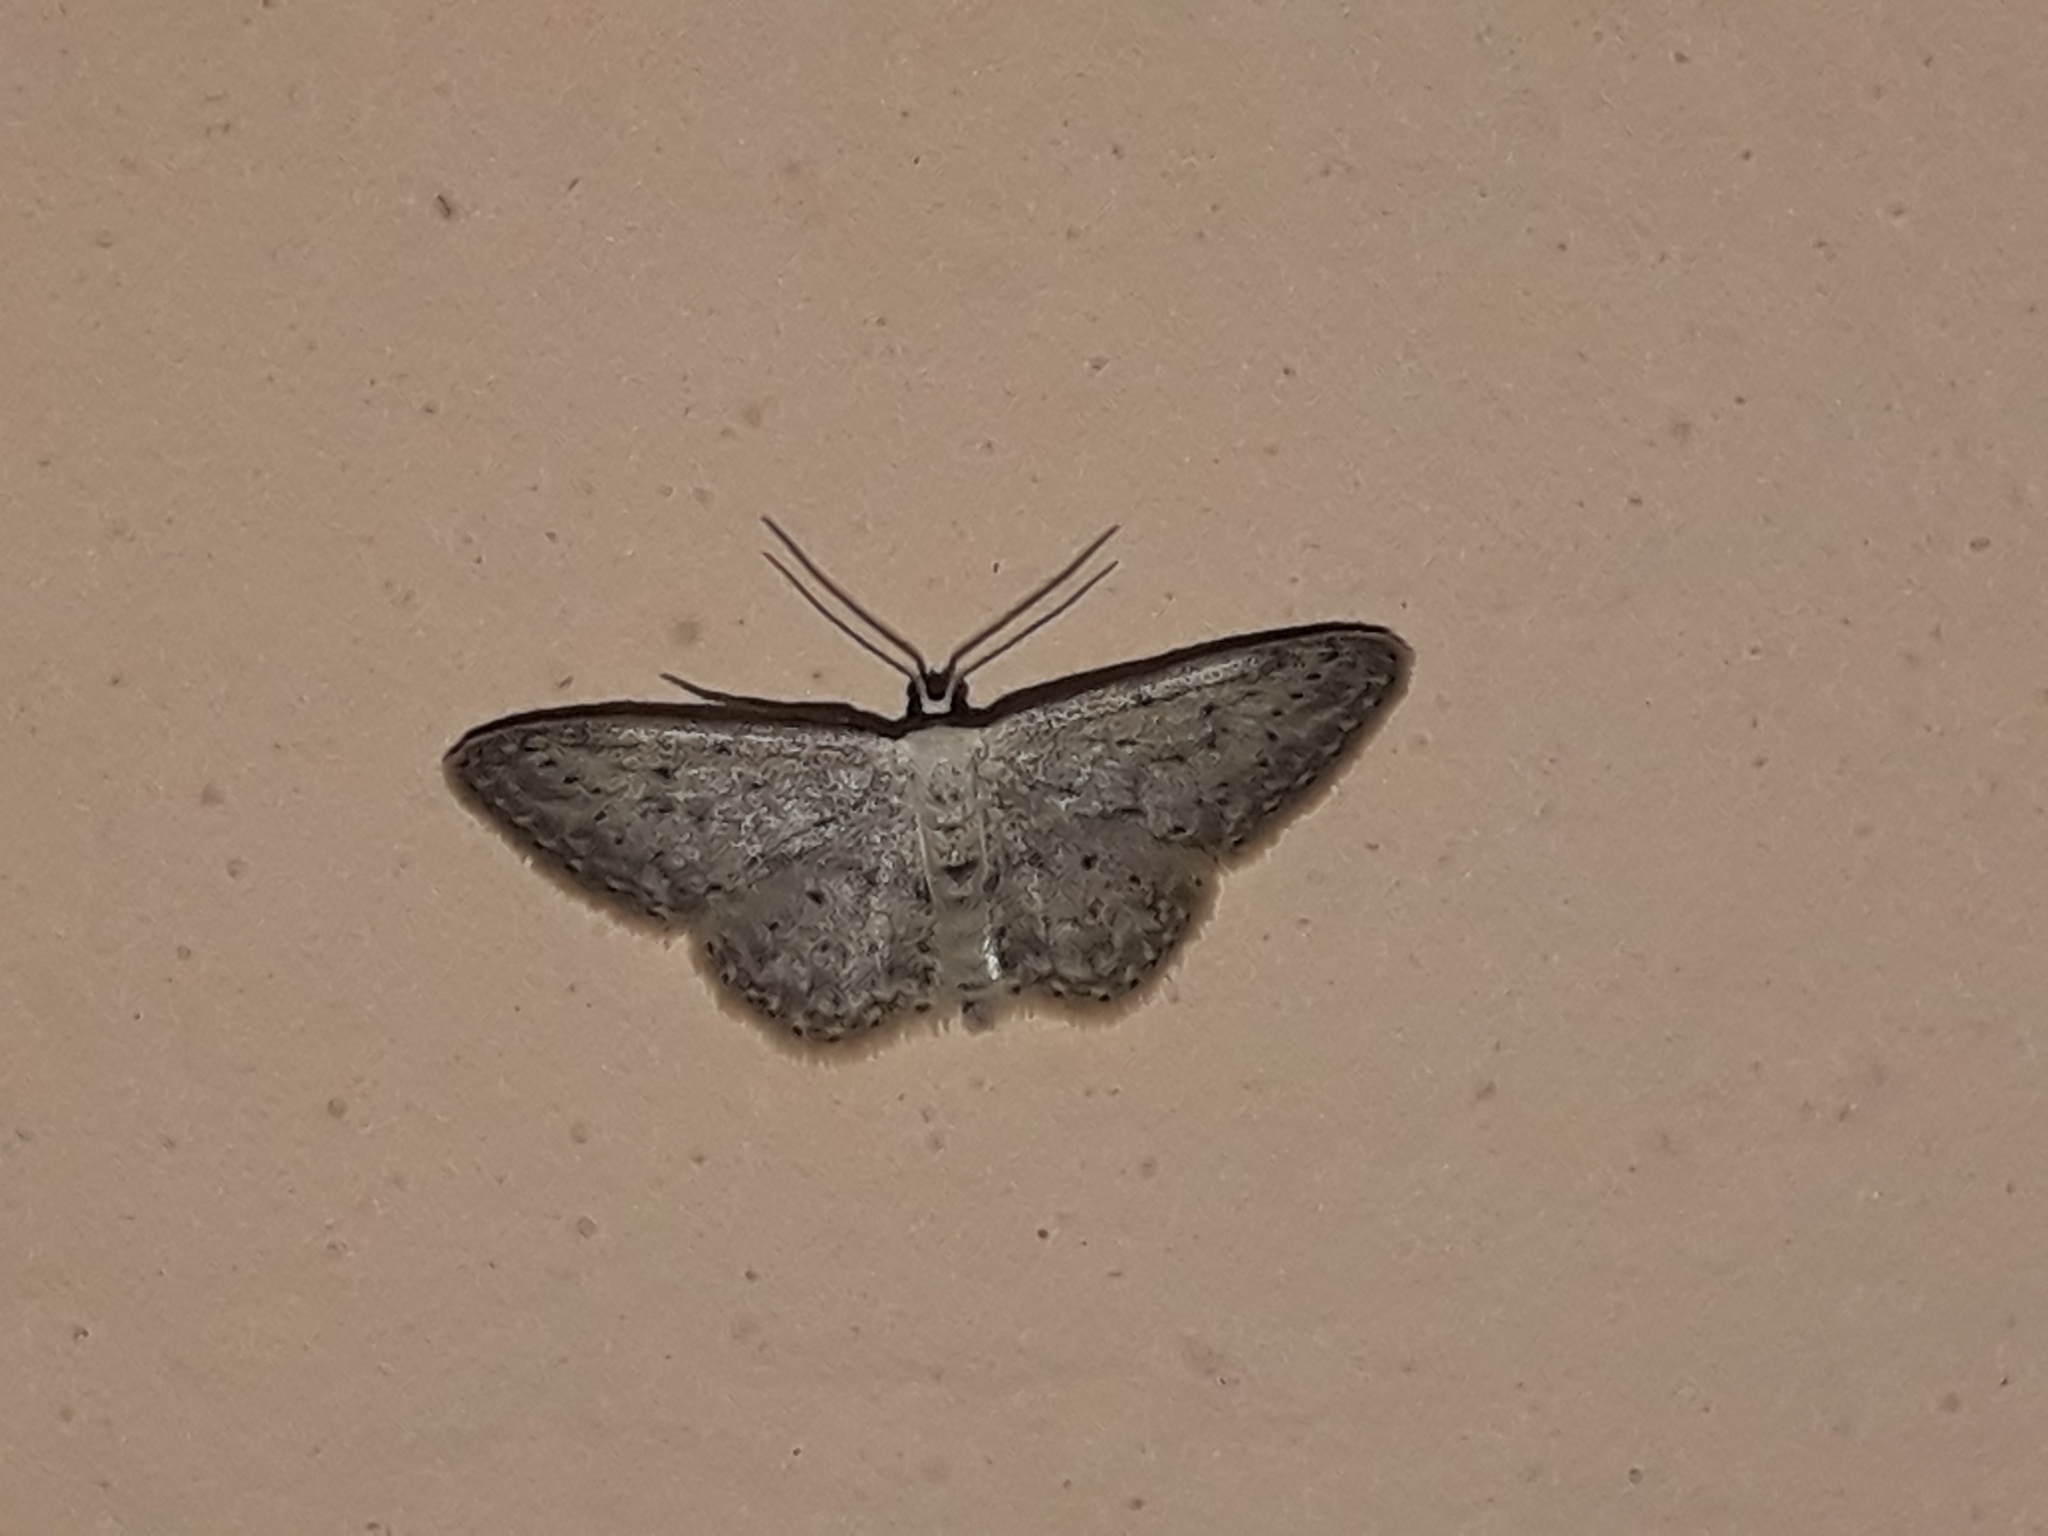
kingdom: Animalia
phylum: Arthropoda
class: Insecta
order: Lepidoptera
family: Geometridae
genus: Idaea
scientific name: Idaea seriata
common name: Small dusty wave
